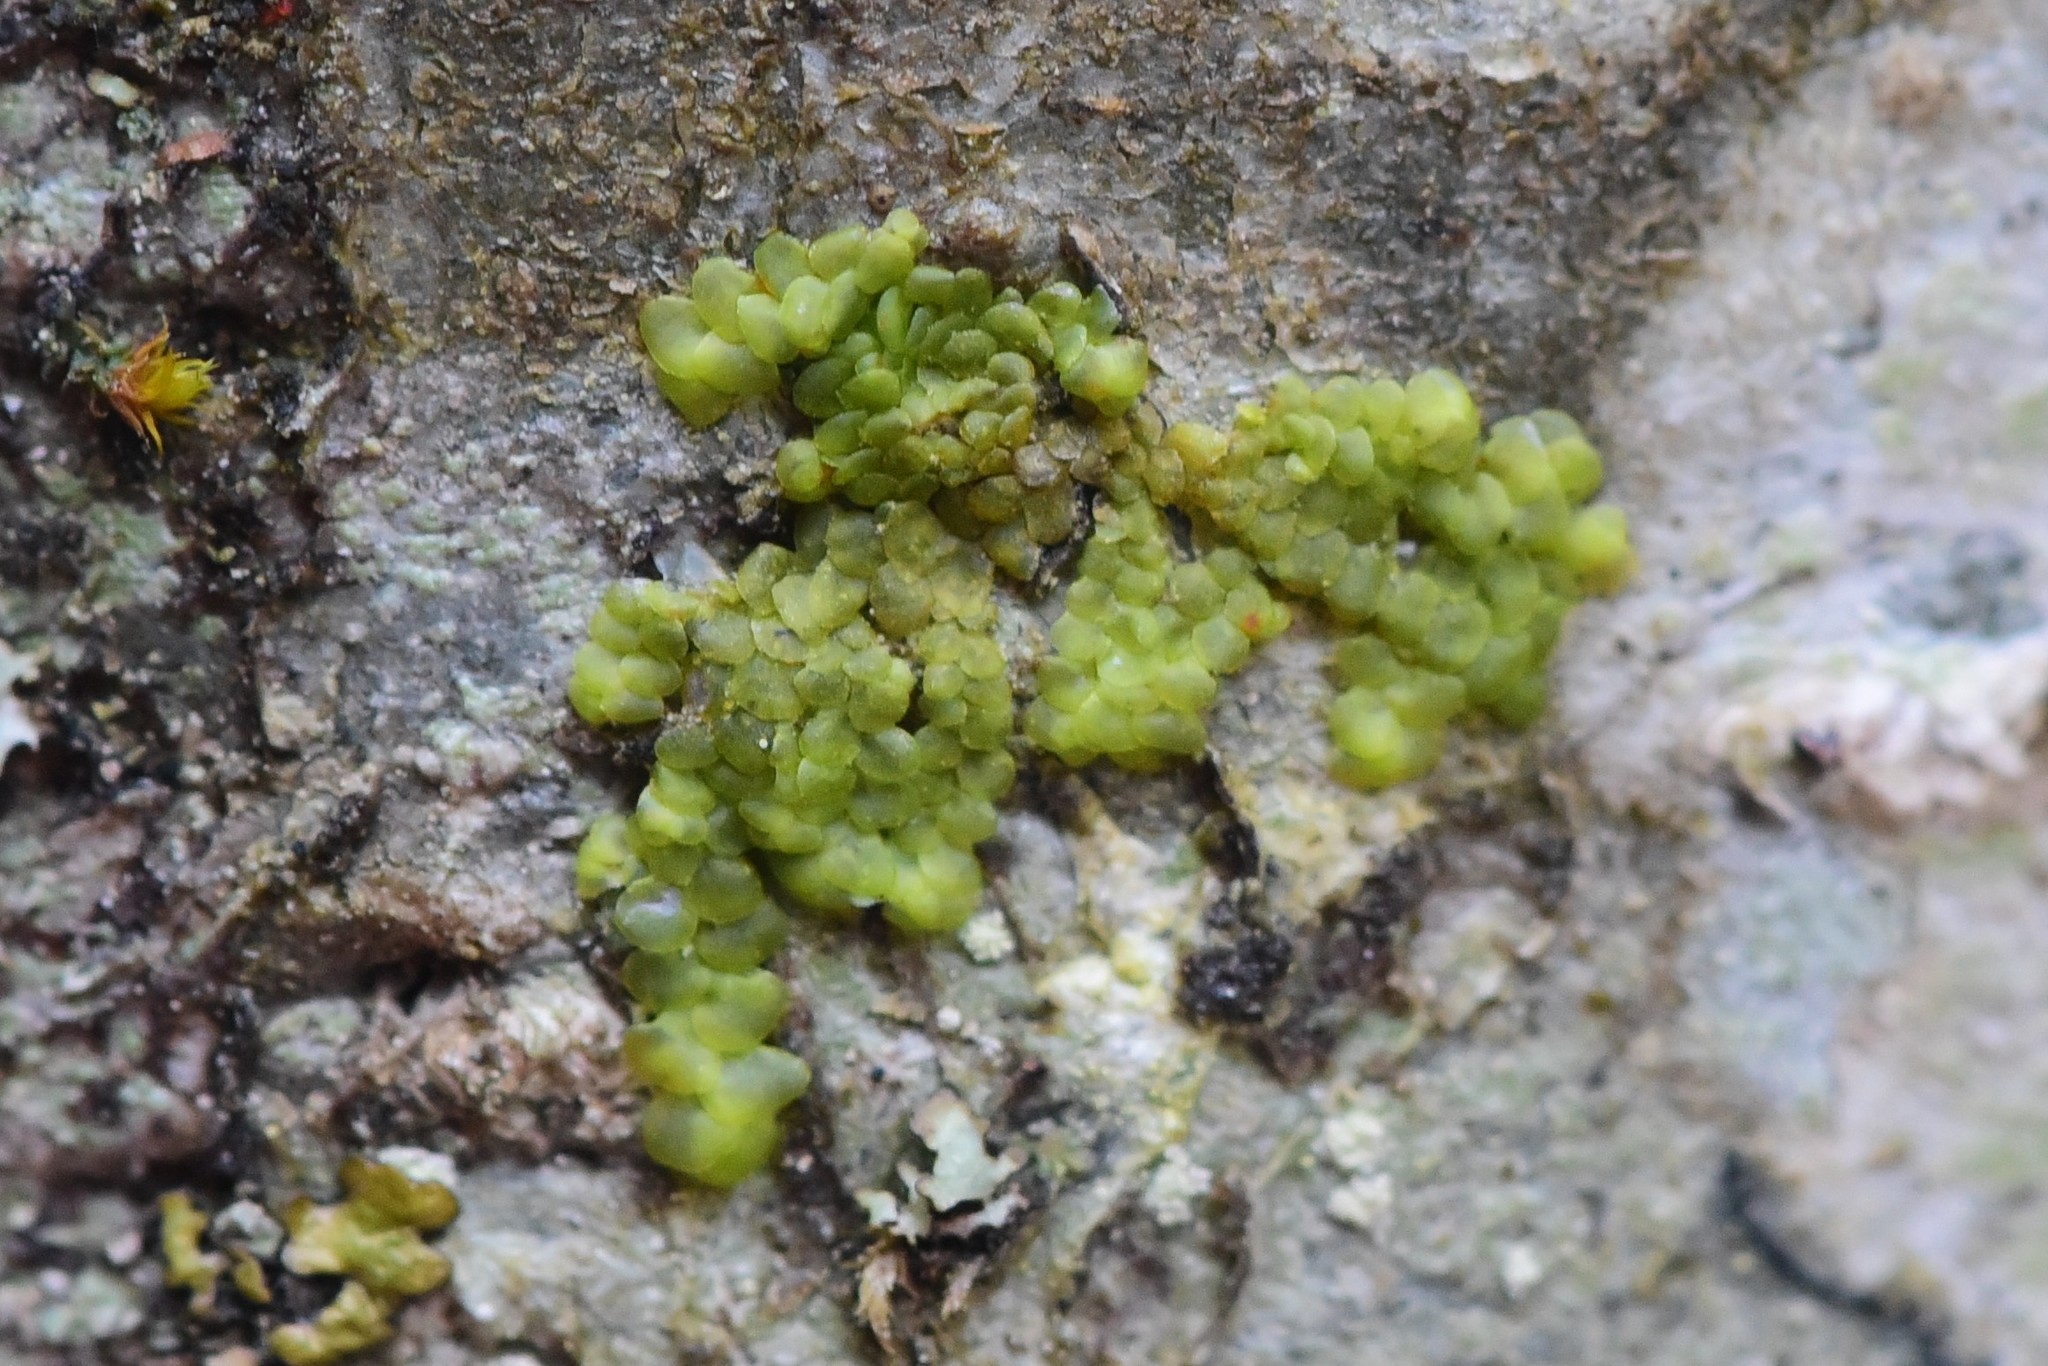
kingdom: Plantae
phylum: Marchantiophyta
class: Jungermanniopsida
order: Porellales
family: Radulaceae
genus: Radula
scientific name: Radula complanata
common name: Flat-leaved scalewort
